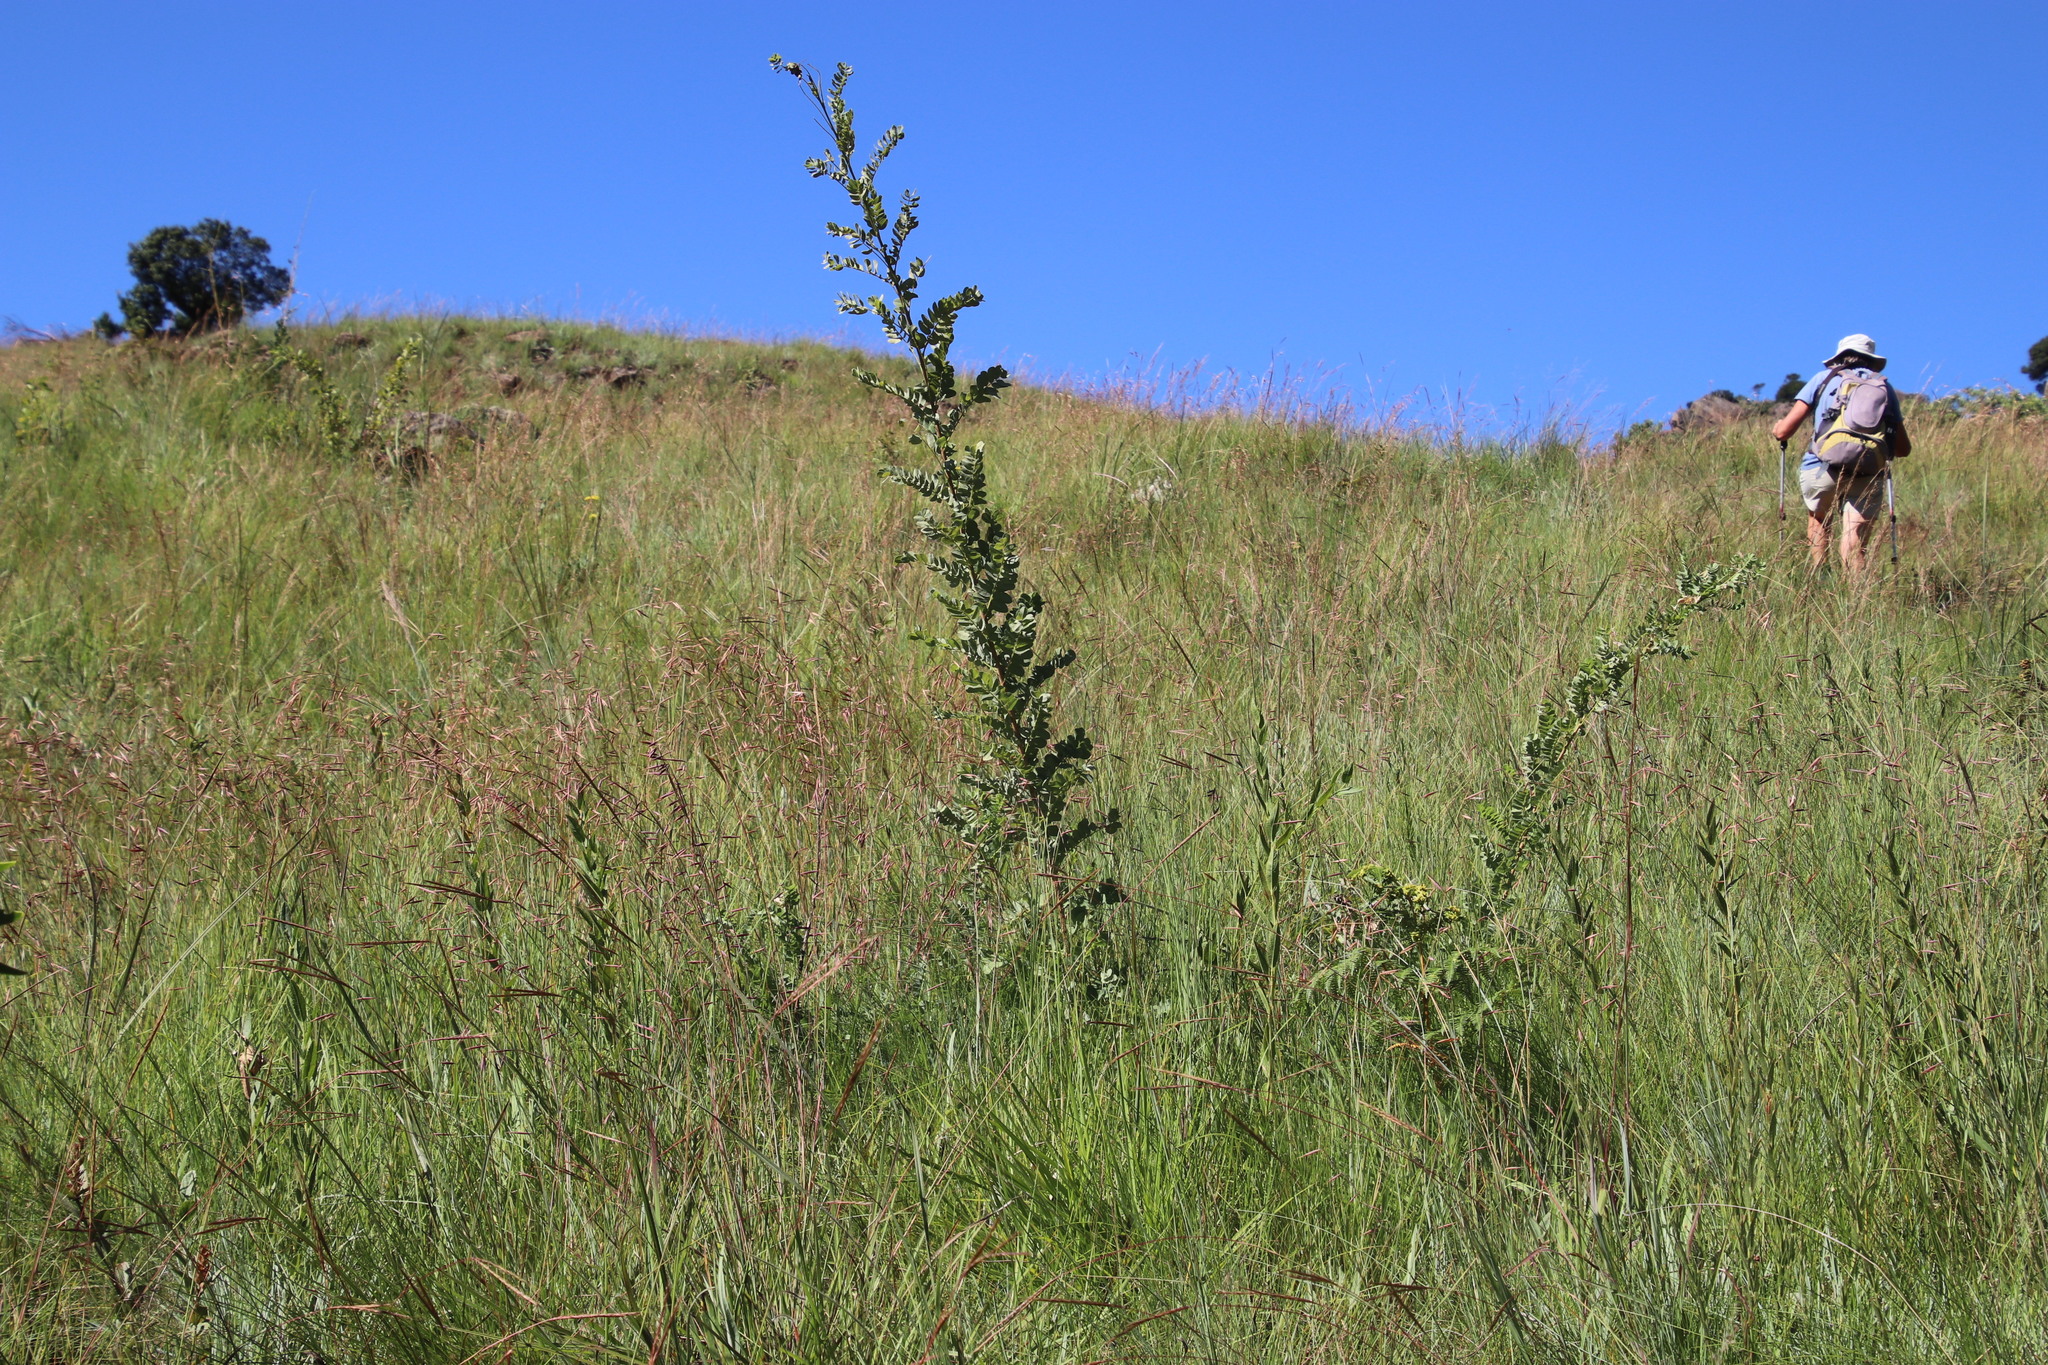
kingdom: Plantae
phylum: Tracheophyta
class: Magnoliopsida
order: Fabales
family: Fabaceae
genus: Calpurnia
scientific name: Calpurnia sericea
